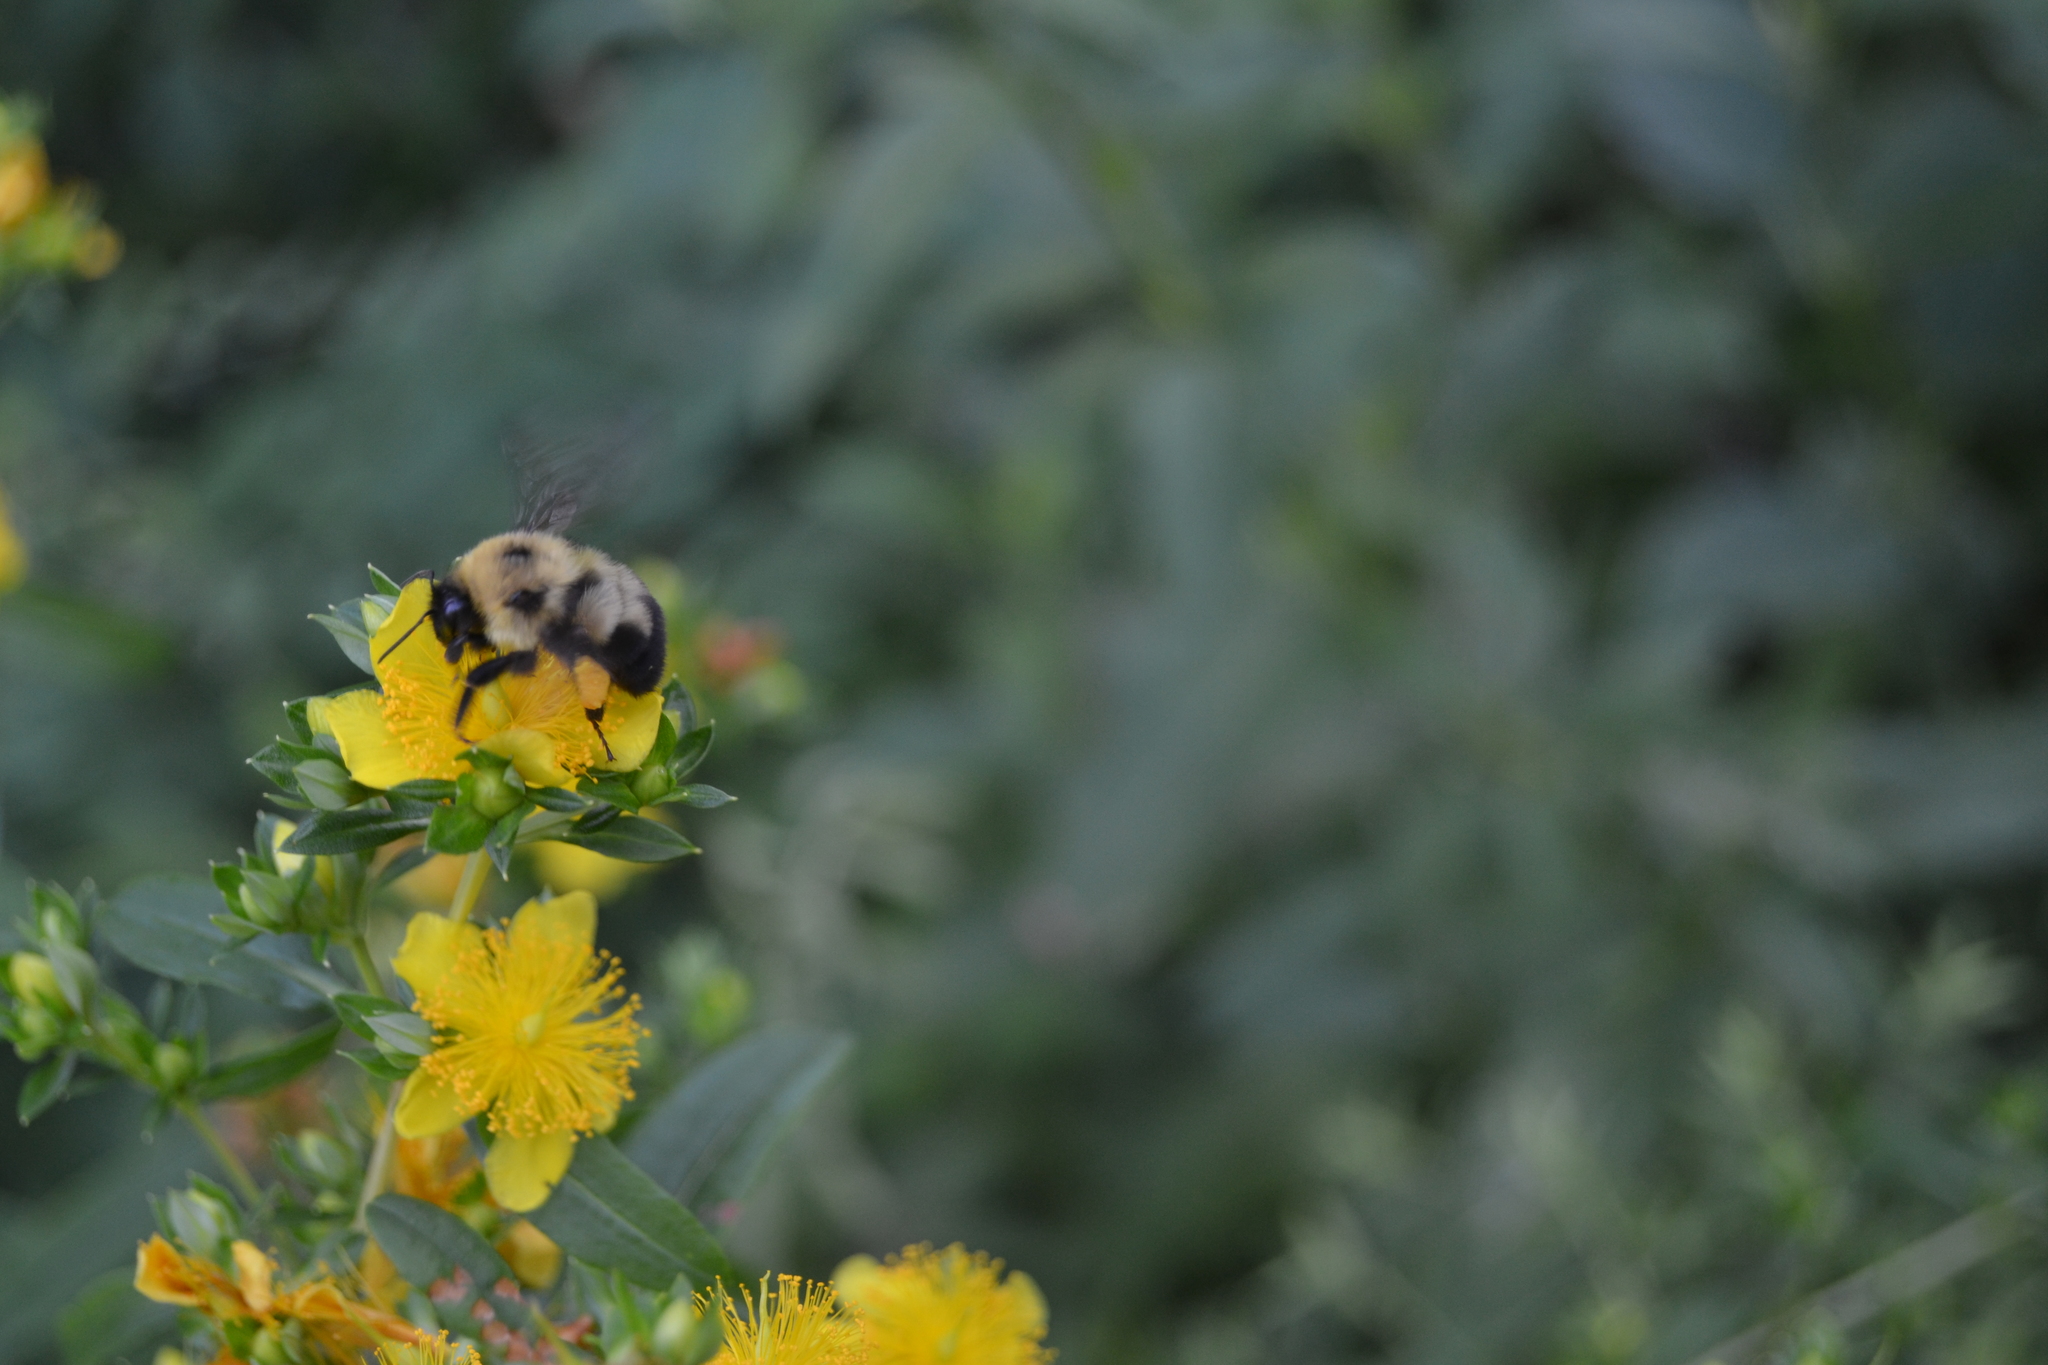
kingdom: Animalia
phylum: Arthropoda
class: Insecta
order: Hymenoptera
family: Apidae
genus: Bombus
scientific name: Bombus bimaculatus
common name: Two-spotted bumble bee
